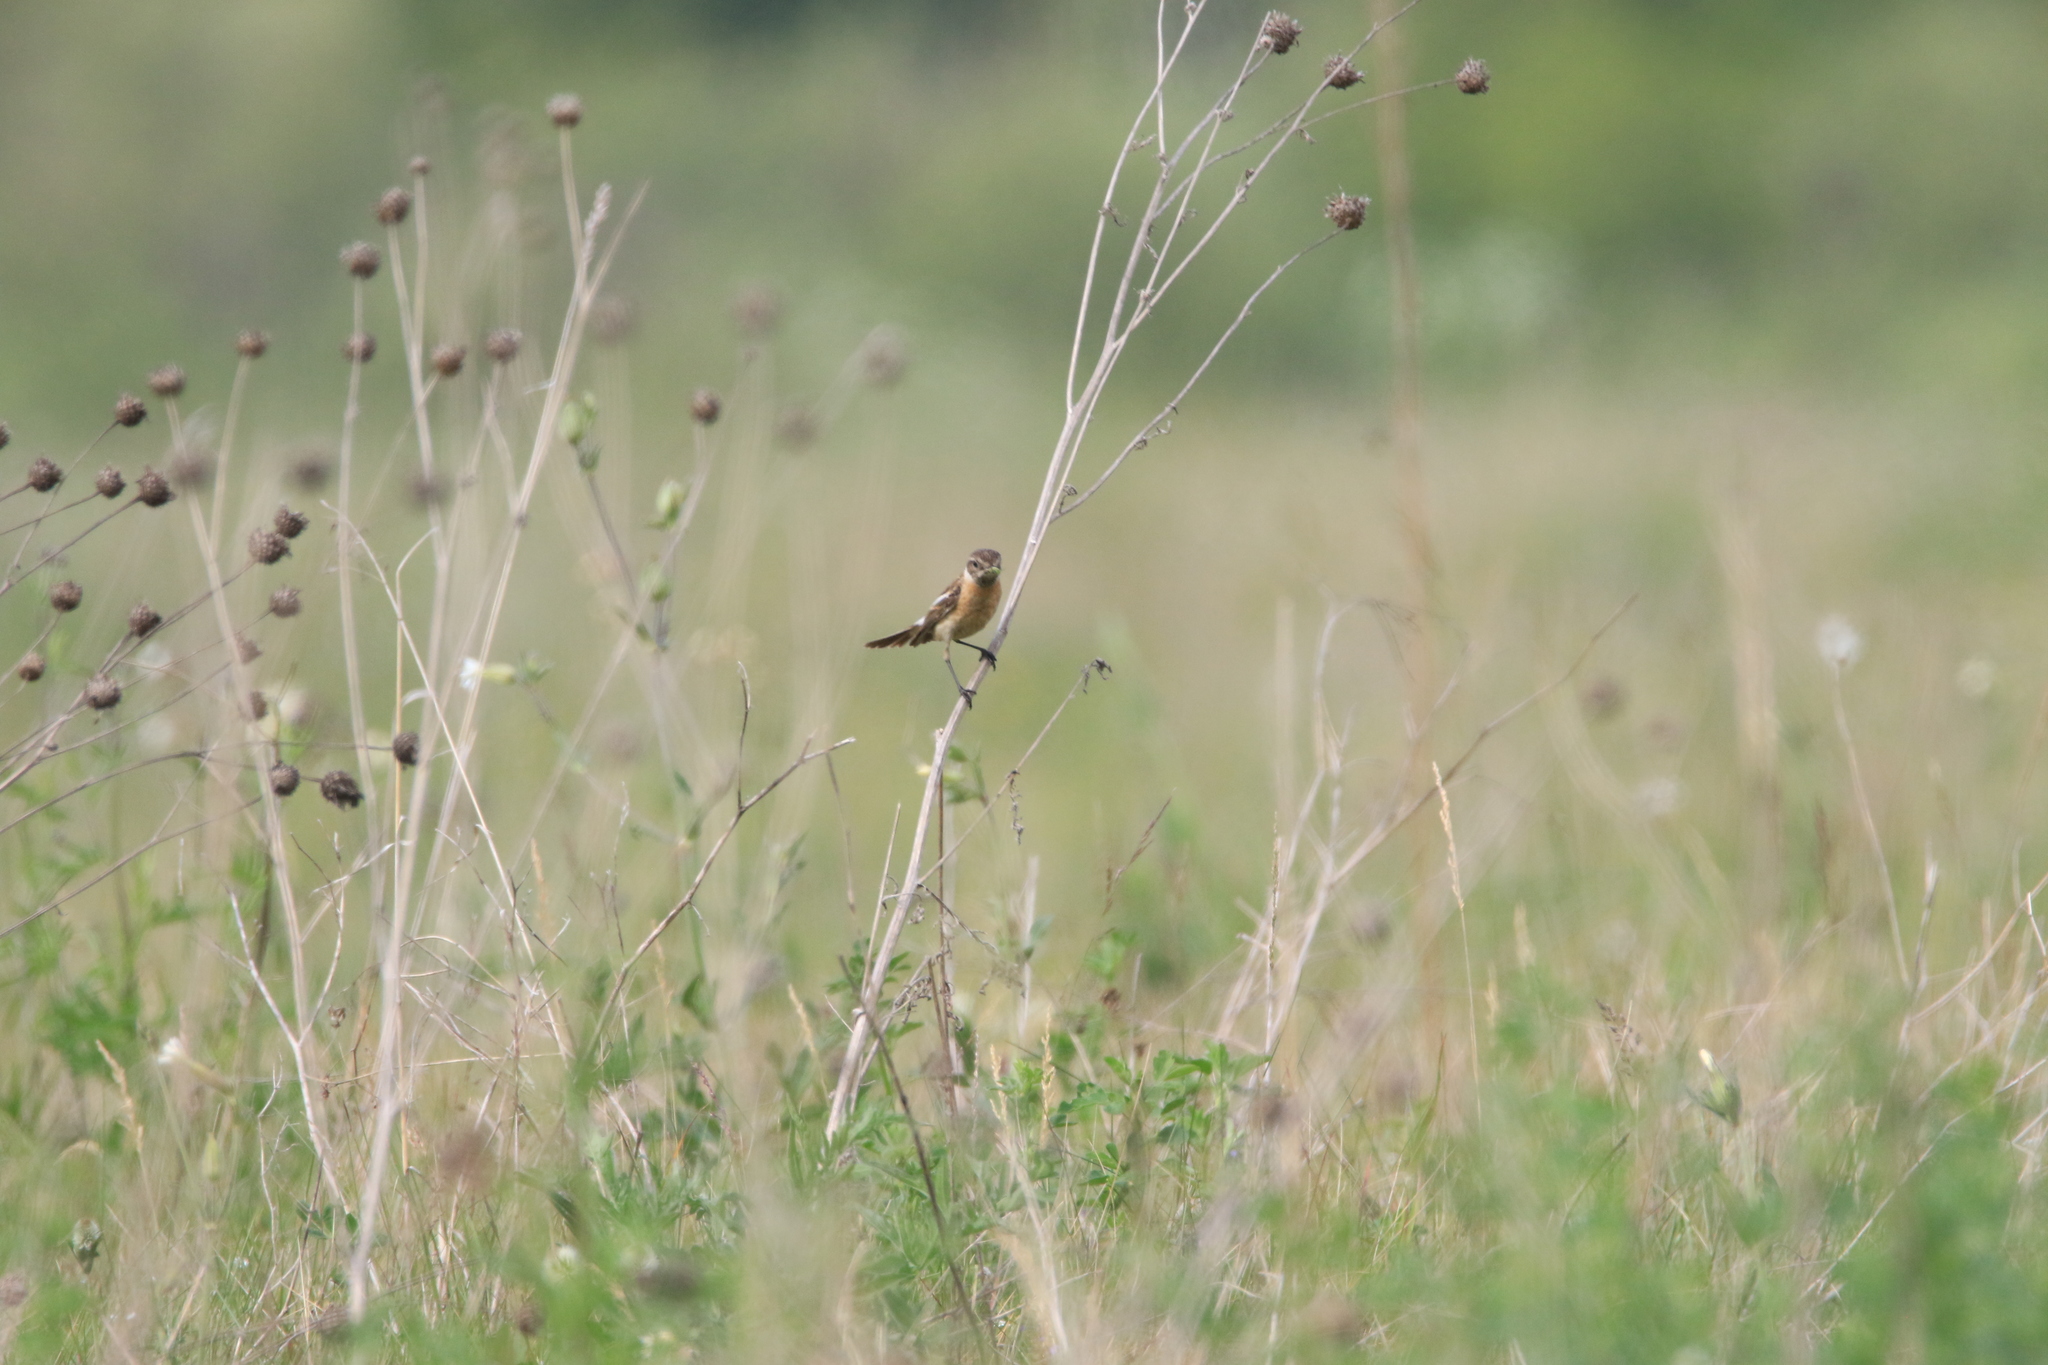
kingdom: Animalia
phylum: Chordata
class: Aves
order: Passeriformes
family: Muscicapidae
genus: Saxicola
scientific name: Saxicola maurus
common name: Siberian stonechat
